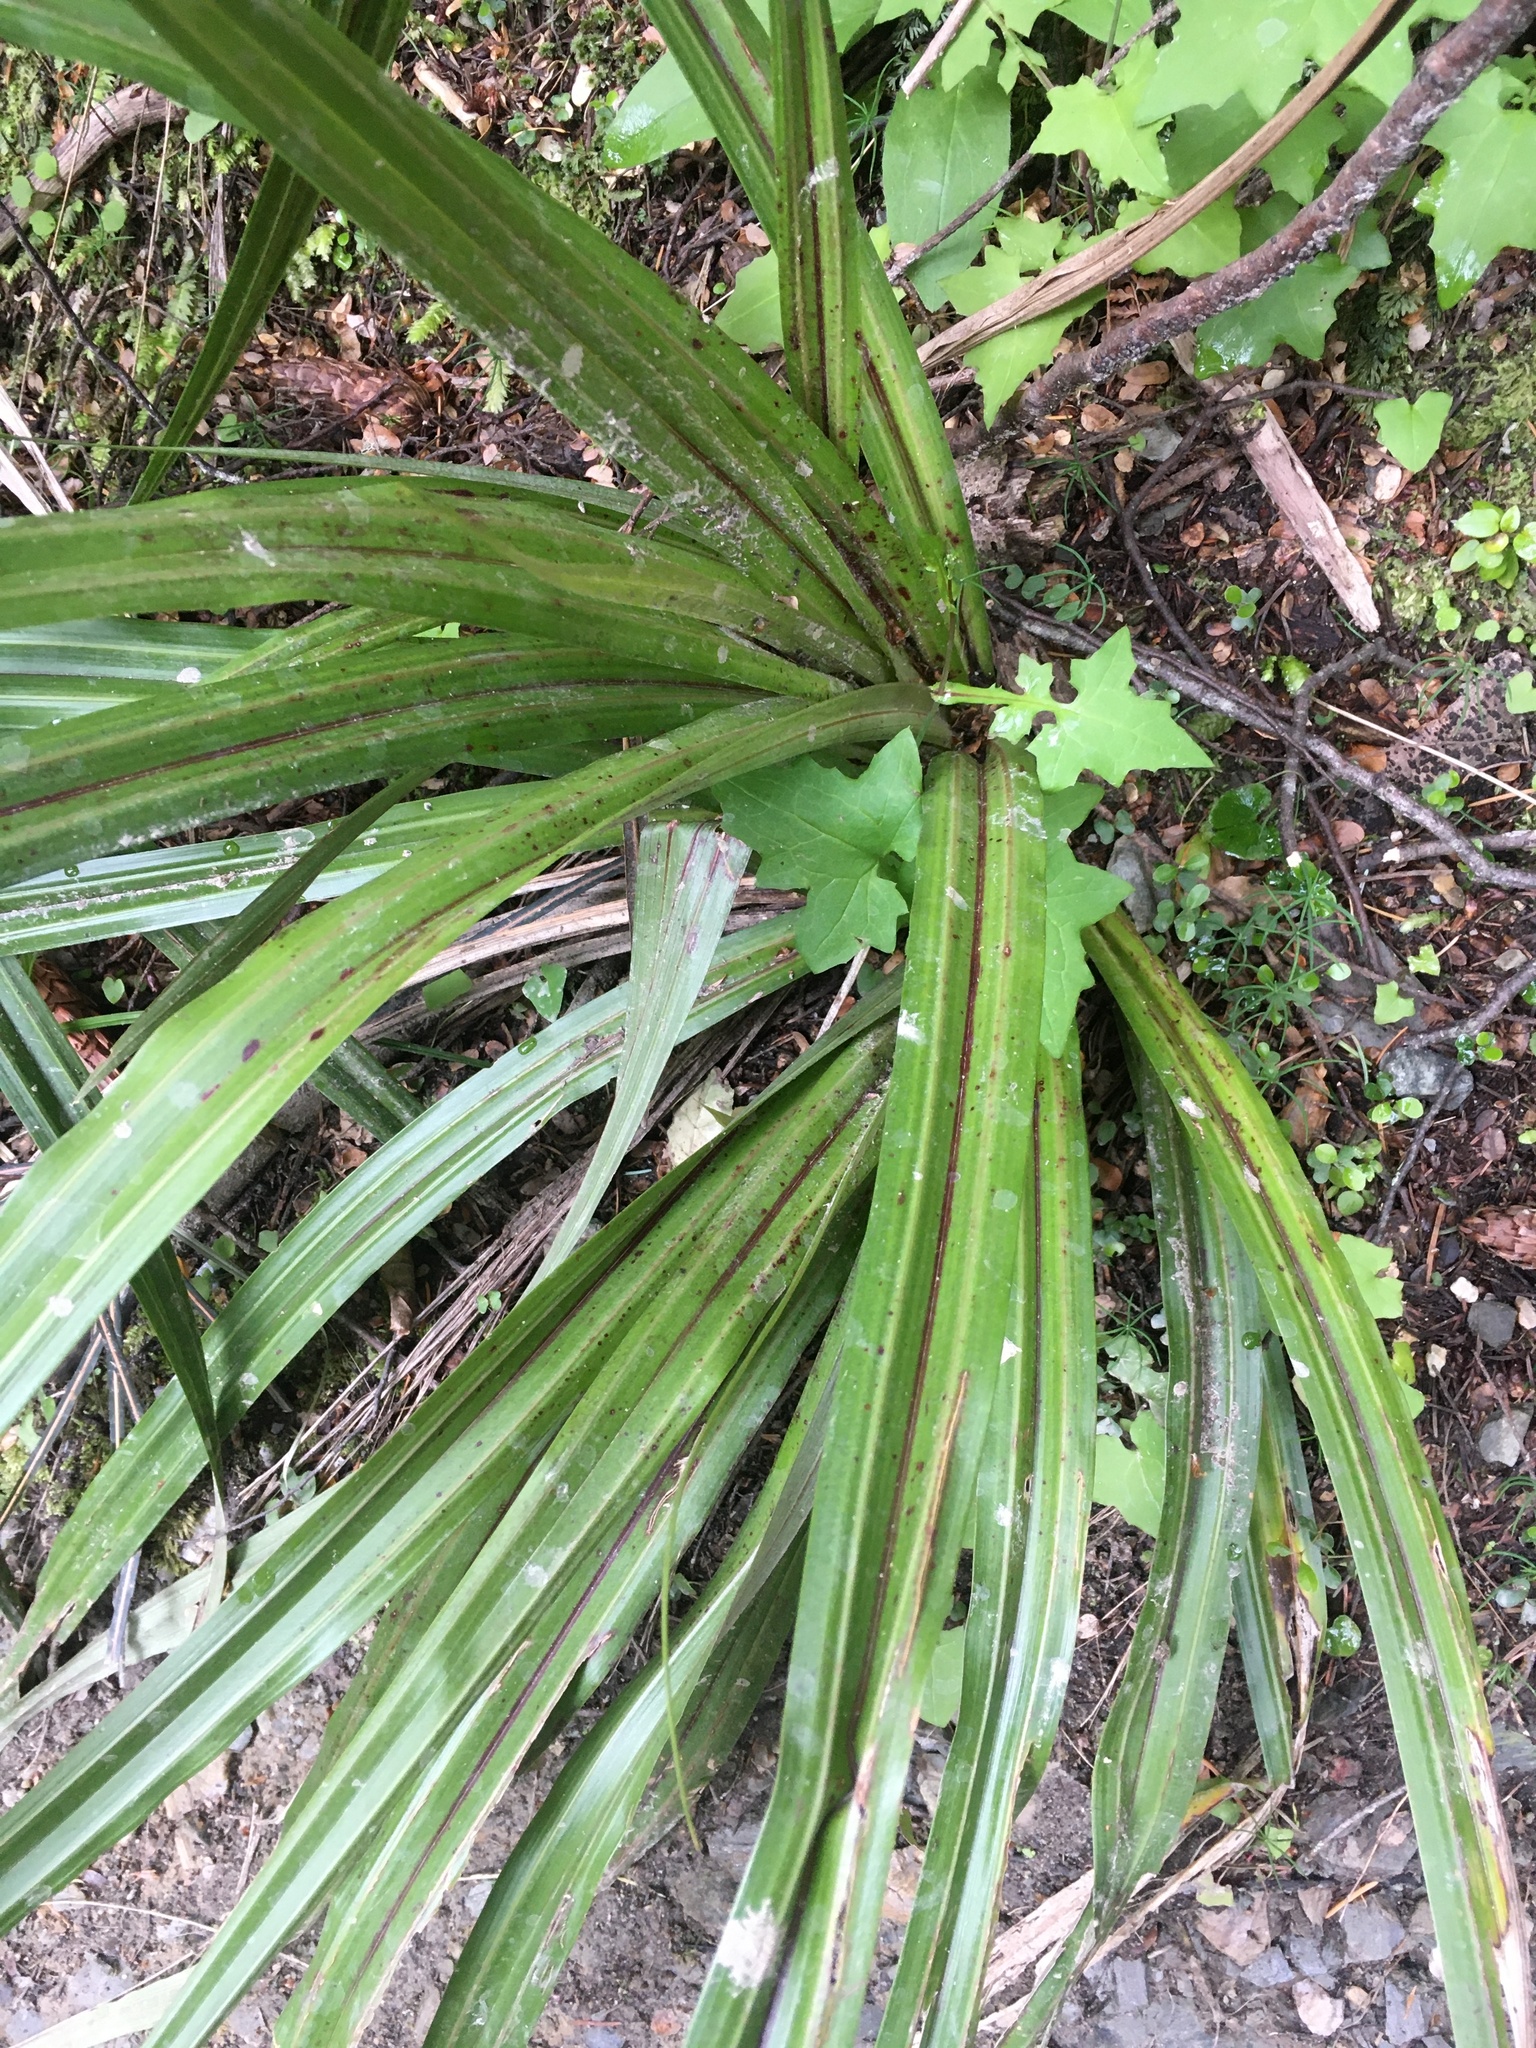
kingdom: Plantae
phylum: Tracheophyta
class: Liliopsida
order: Asparagales
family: Asteliaceae
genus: Astelia
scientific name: Astelia fragrans
